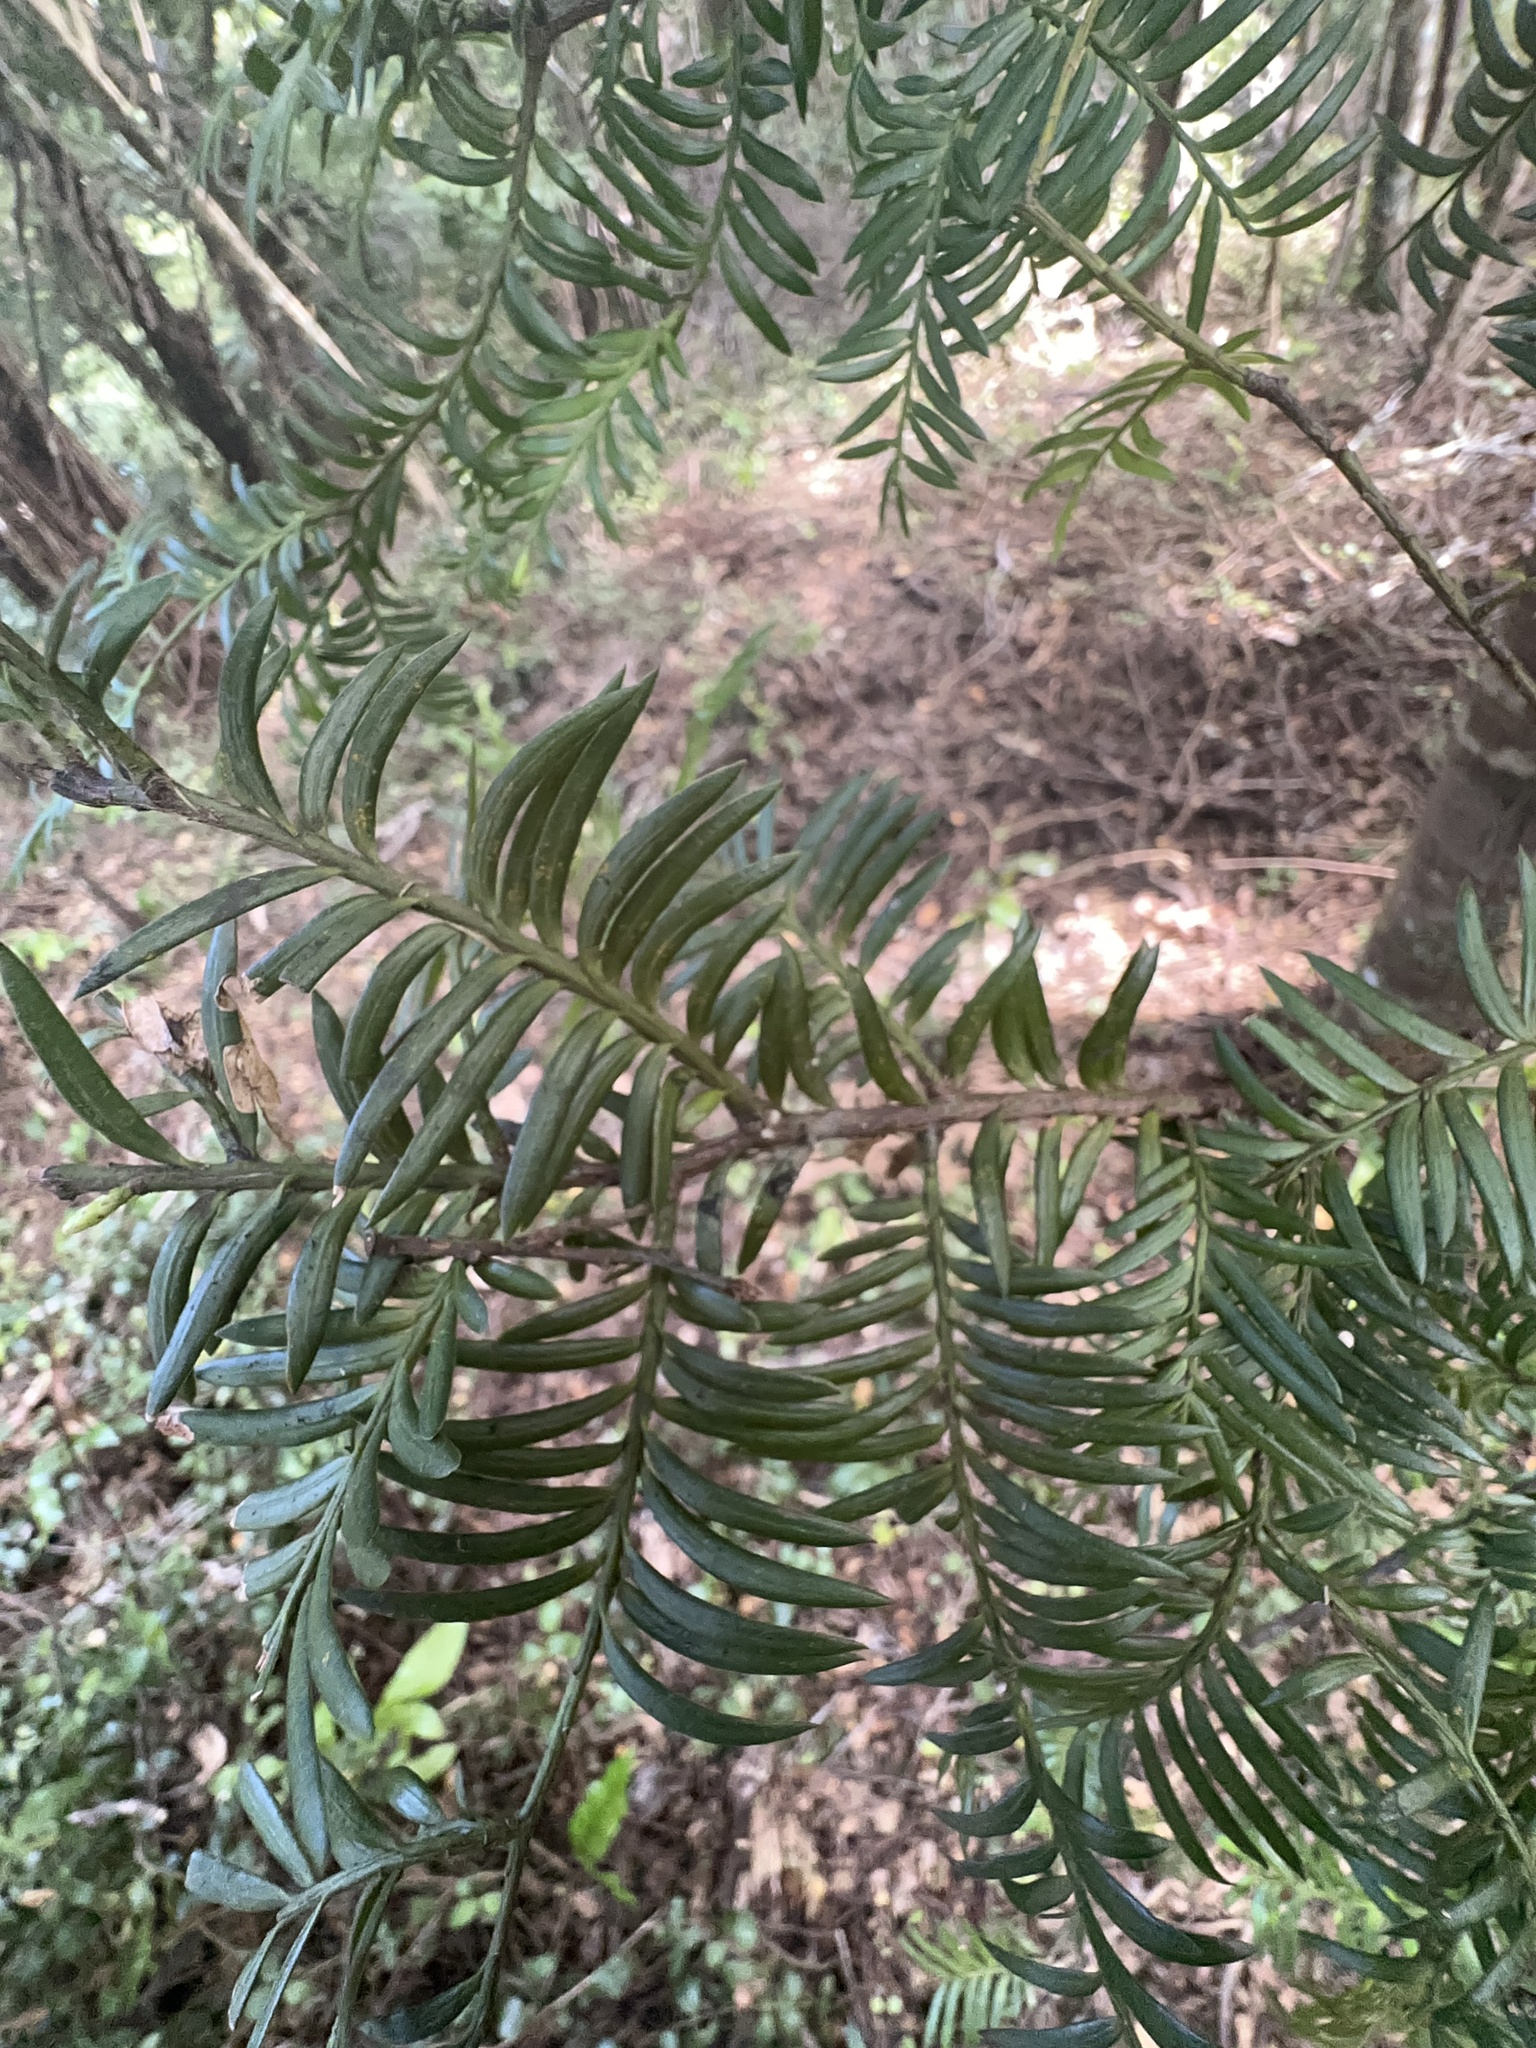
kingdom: Plantae
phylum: Tracheophyta
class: Pinopsida
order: Pinales
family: Podocarpaceae
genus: Prumnopitys
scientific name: Prumnopitys ferruginea
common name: Brown pine
